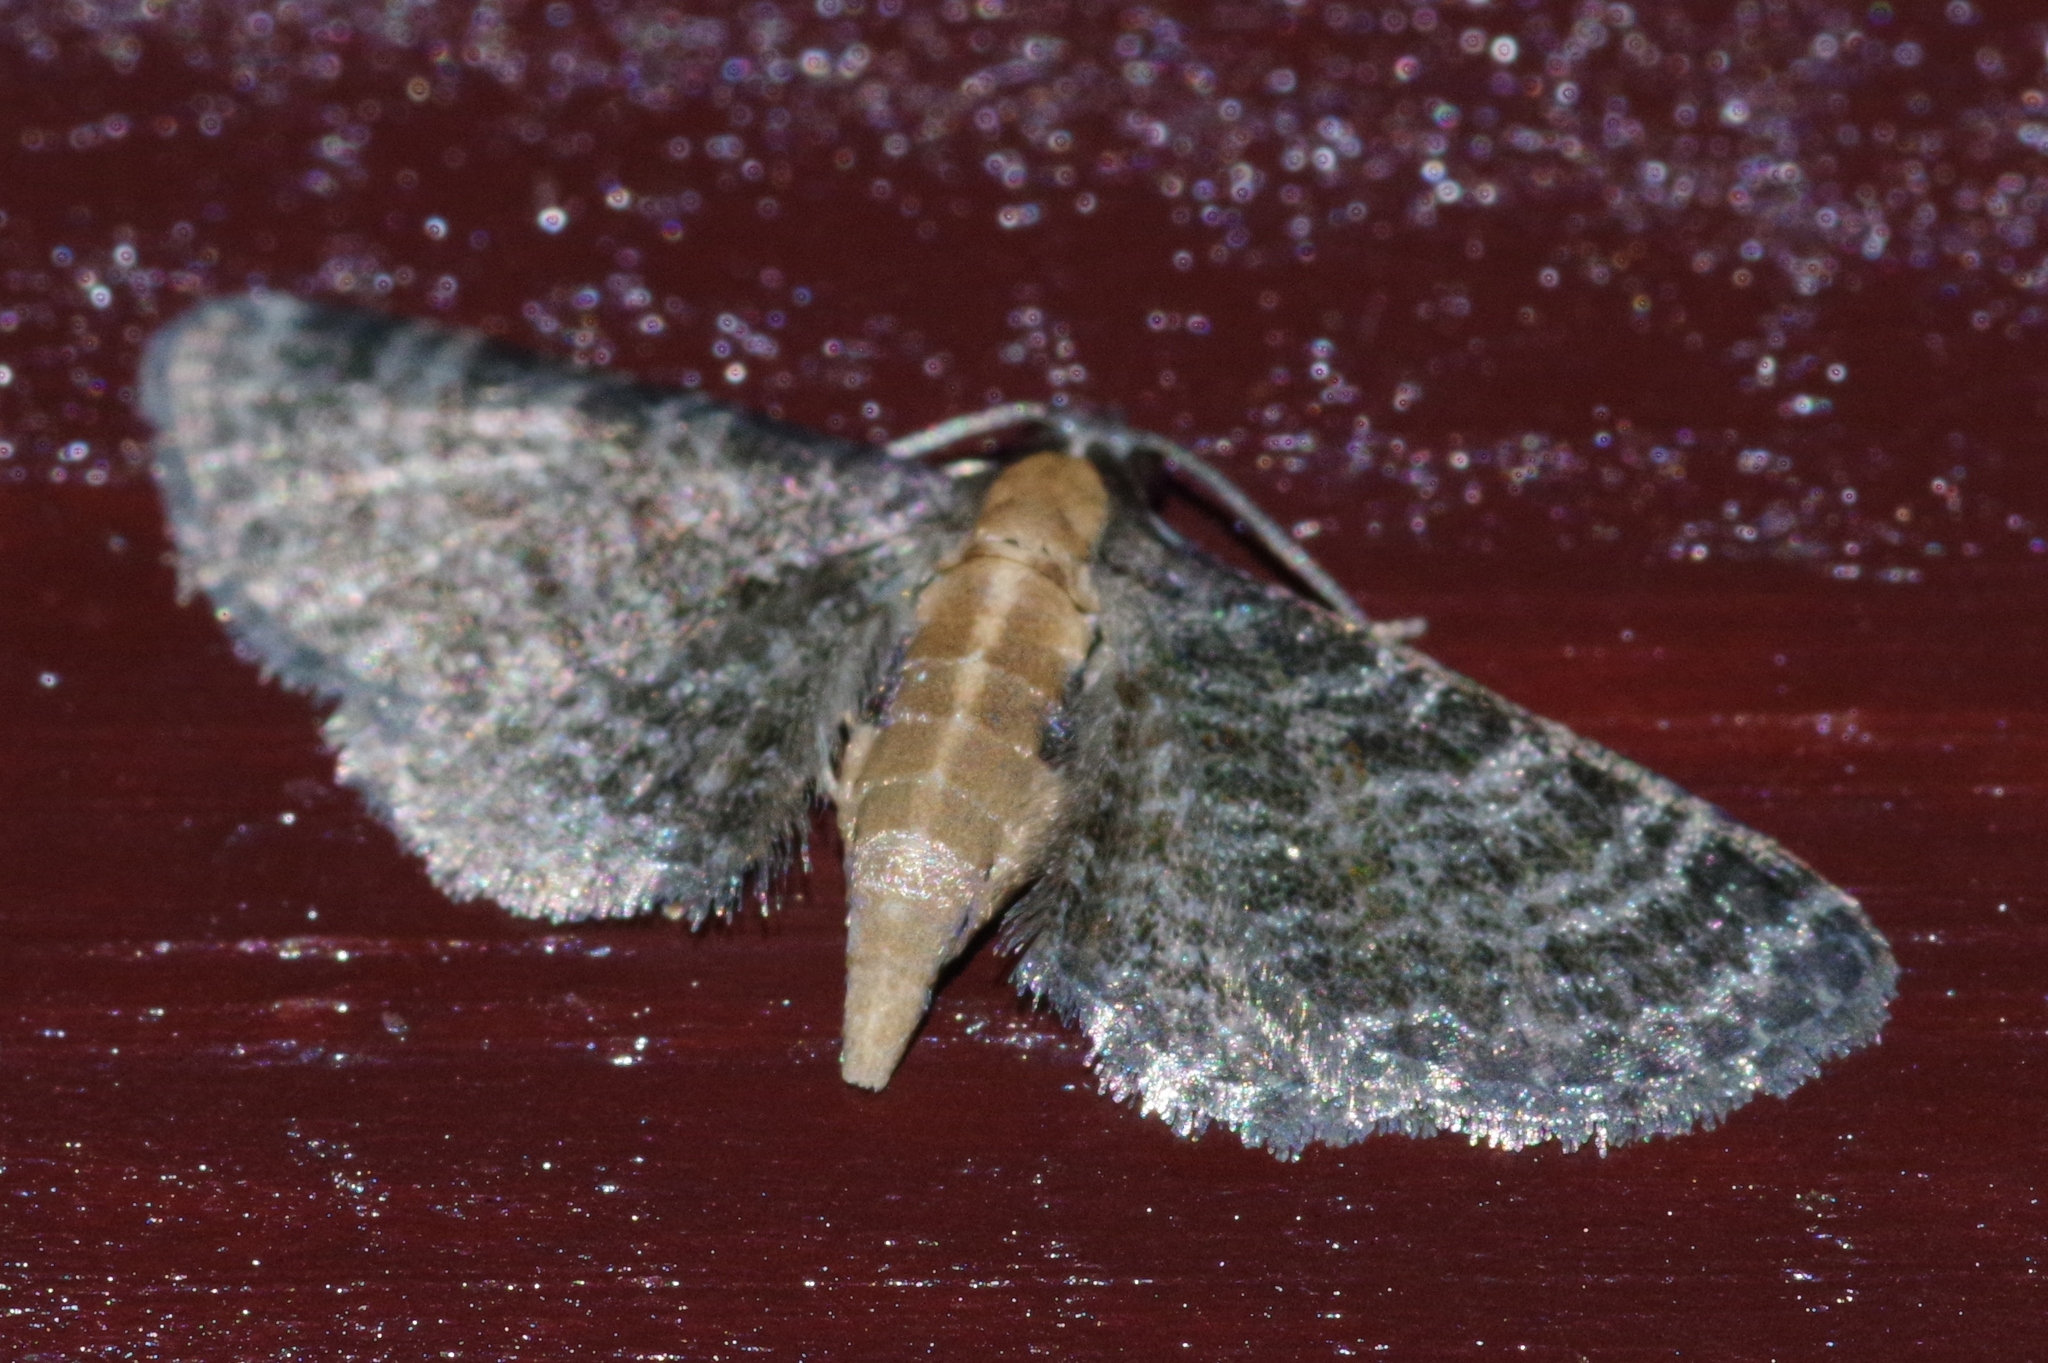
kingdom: Animalia
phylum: Arthropoda
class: Insecta
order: Lepidoptera
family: Geometridae
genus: Eupithecia
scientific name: Eupithecia subtacincta
